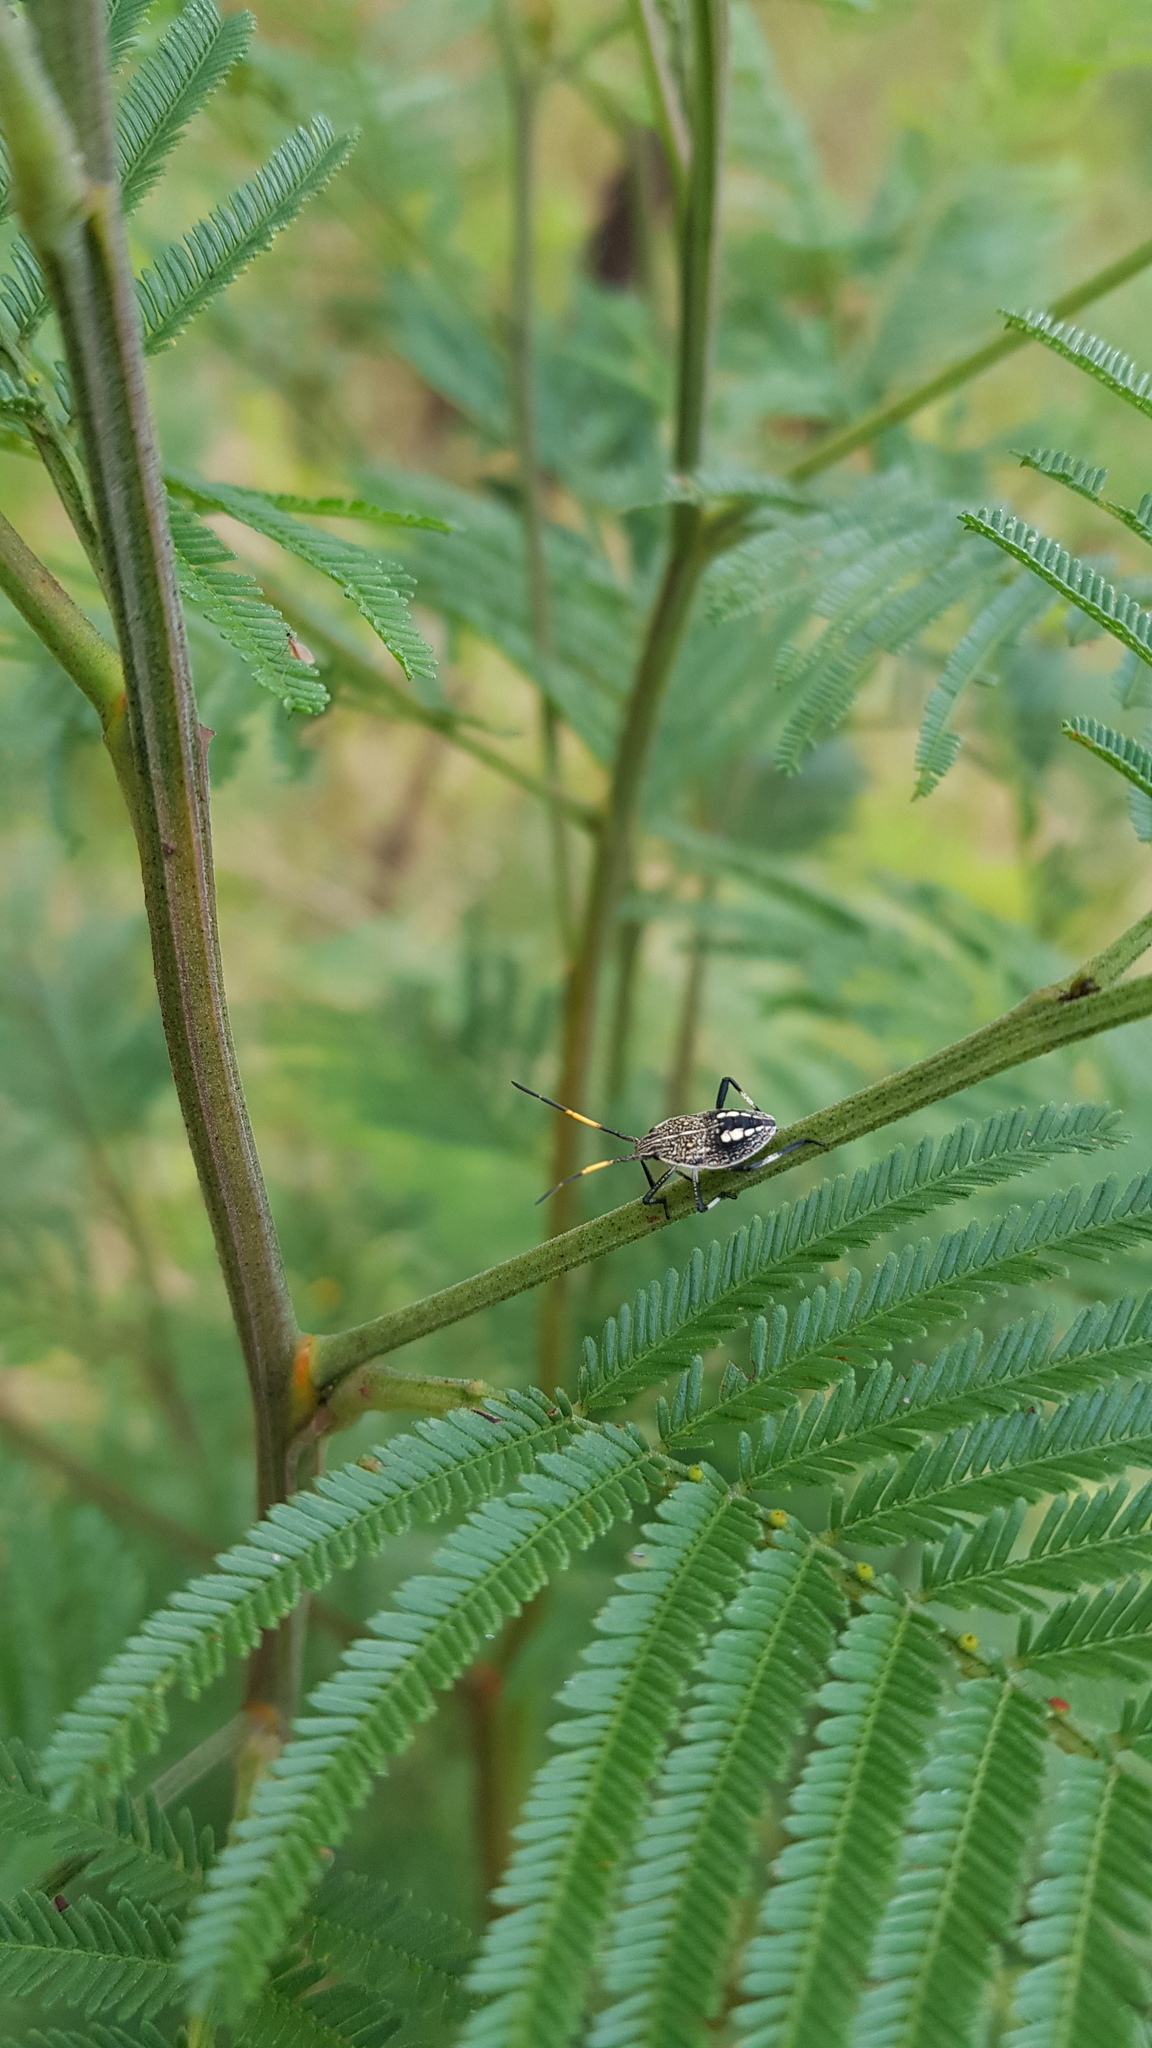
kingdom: Animalia
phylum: Arthropoda
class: Insecta
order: Hemiptera
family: Pentatomidae
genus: Poecilometis
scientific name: Poecilometis
